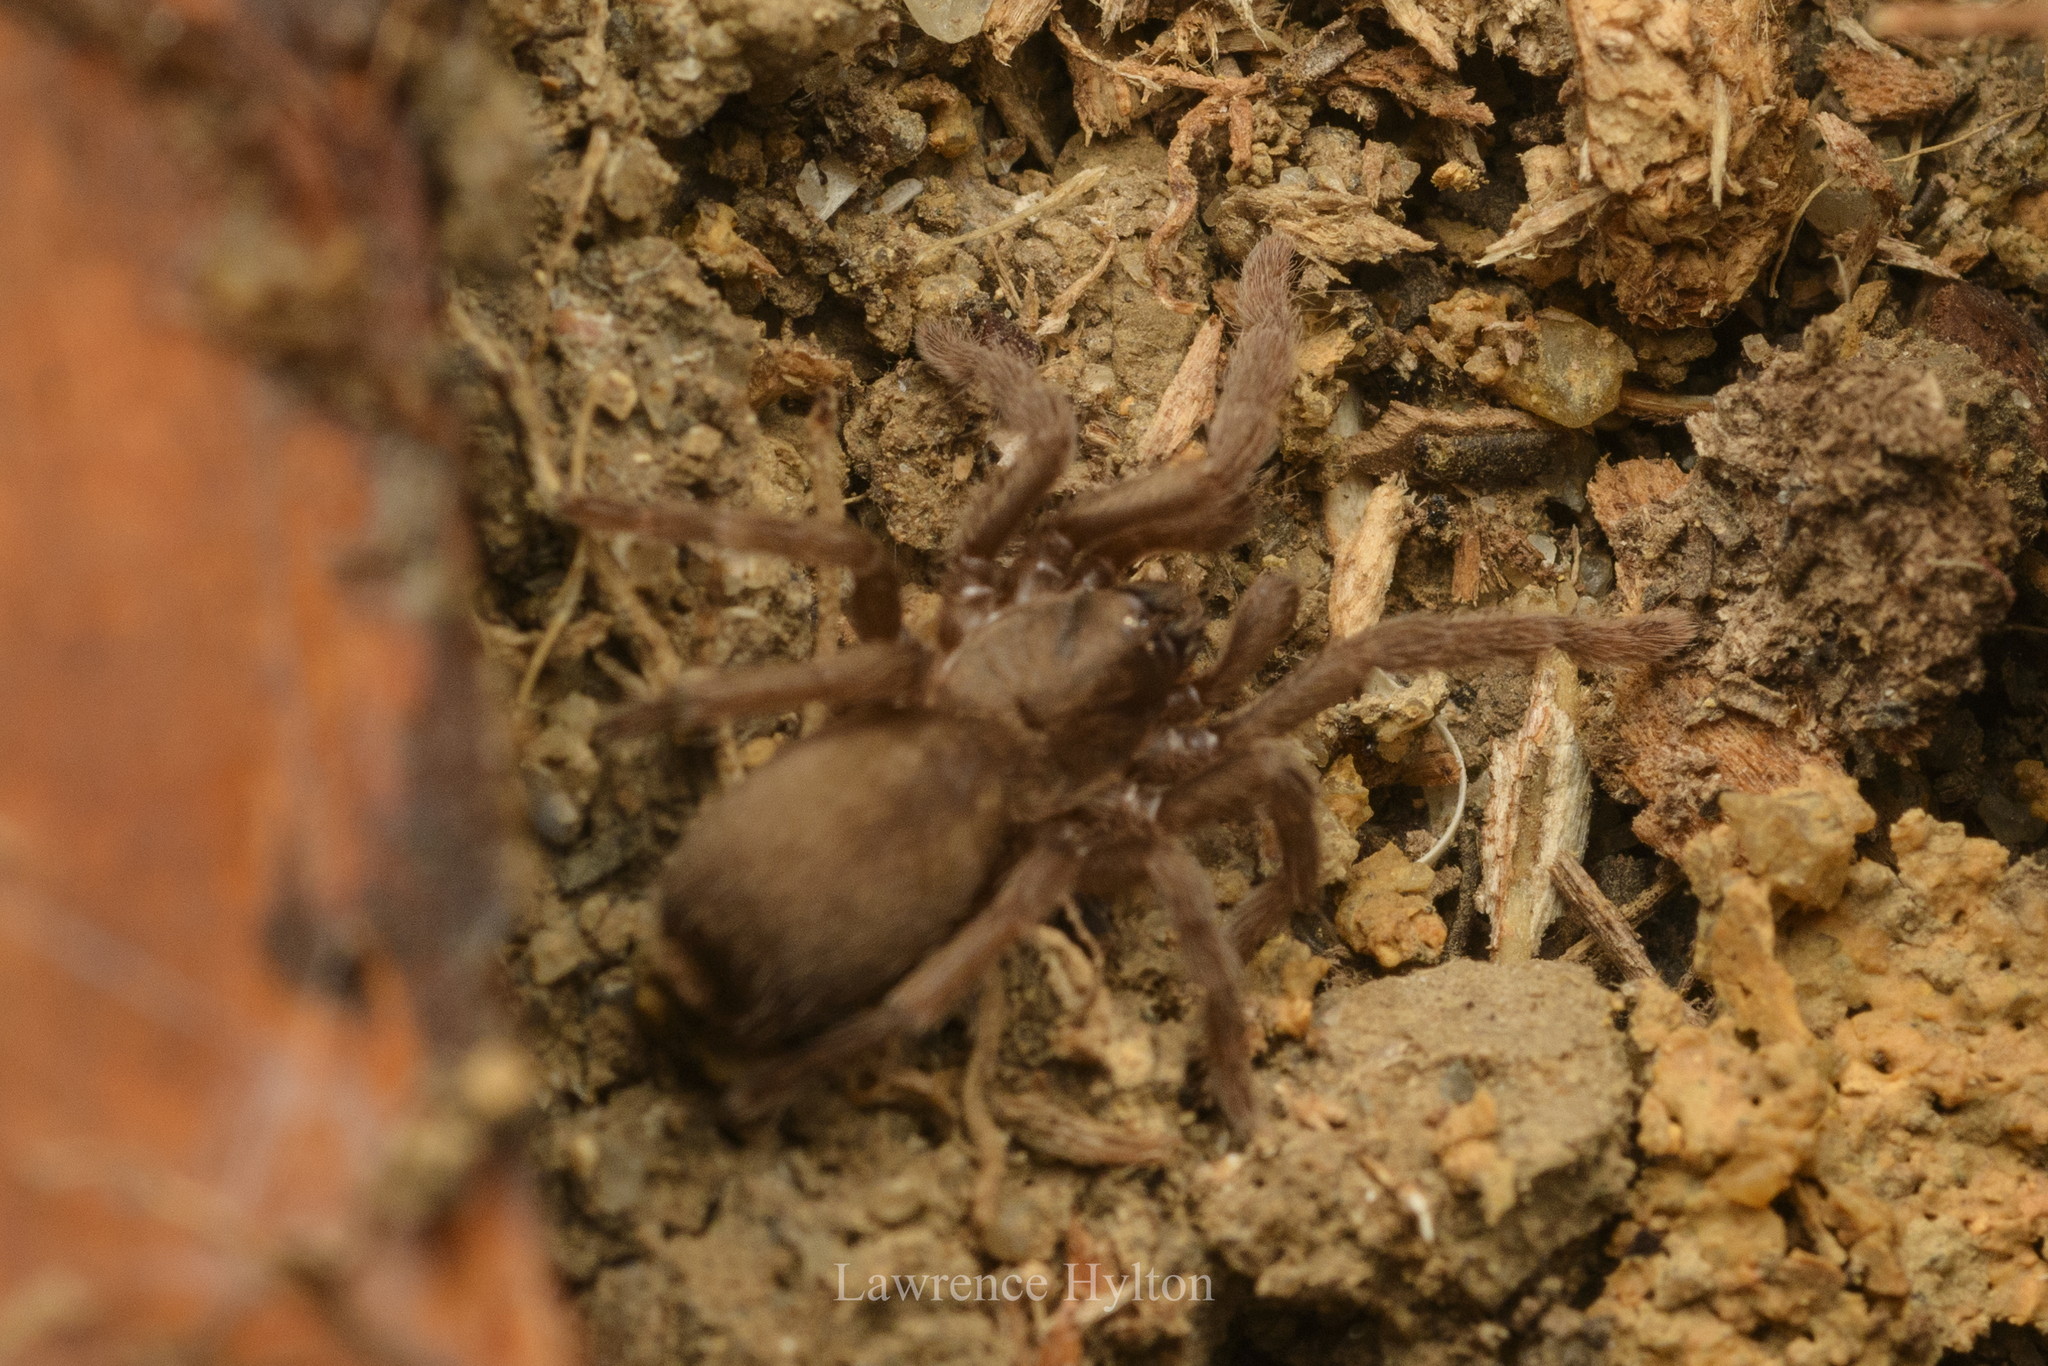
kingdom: Animalia
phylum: Arthropoda
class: Arachnida
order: Araneae
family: Theraphosidae
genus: Phlogiellus
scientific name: Phlogiellus
